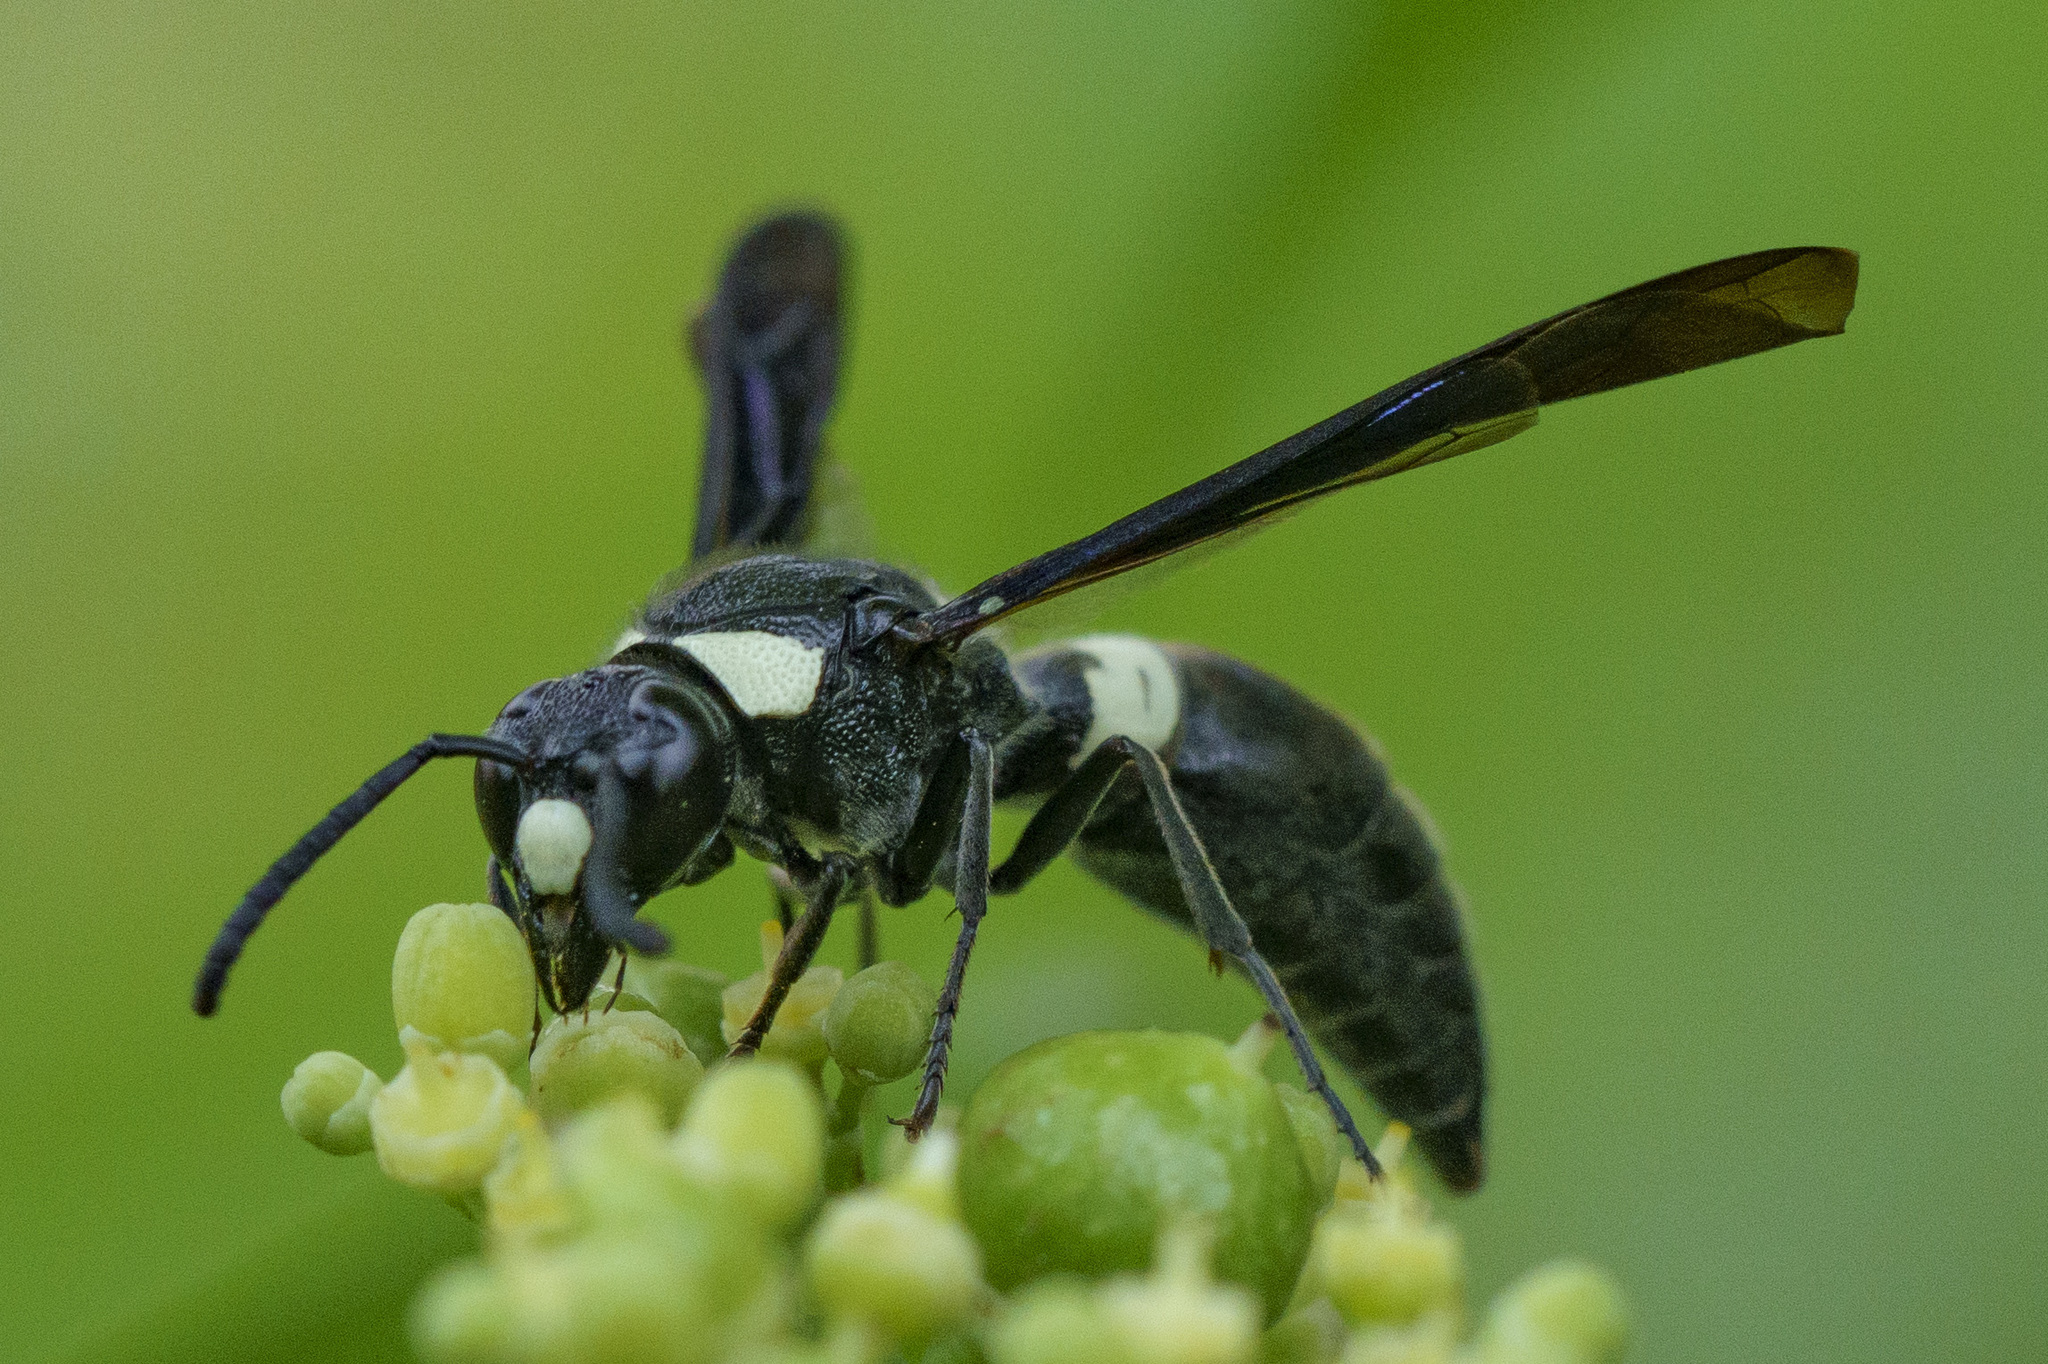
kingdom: Animalia
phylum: Arthropoda
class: Insecta
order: Hymenoptera
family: Eumenidae
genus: Monobia
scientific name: Monobia quadridens
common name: Four-toothed mason wasp
